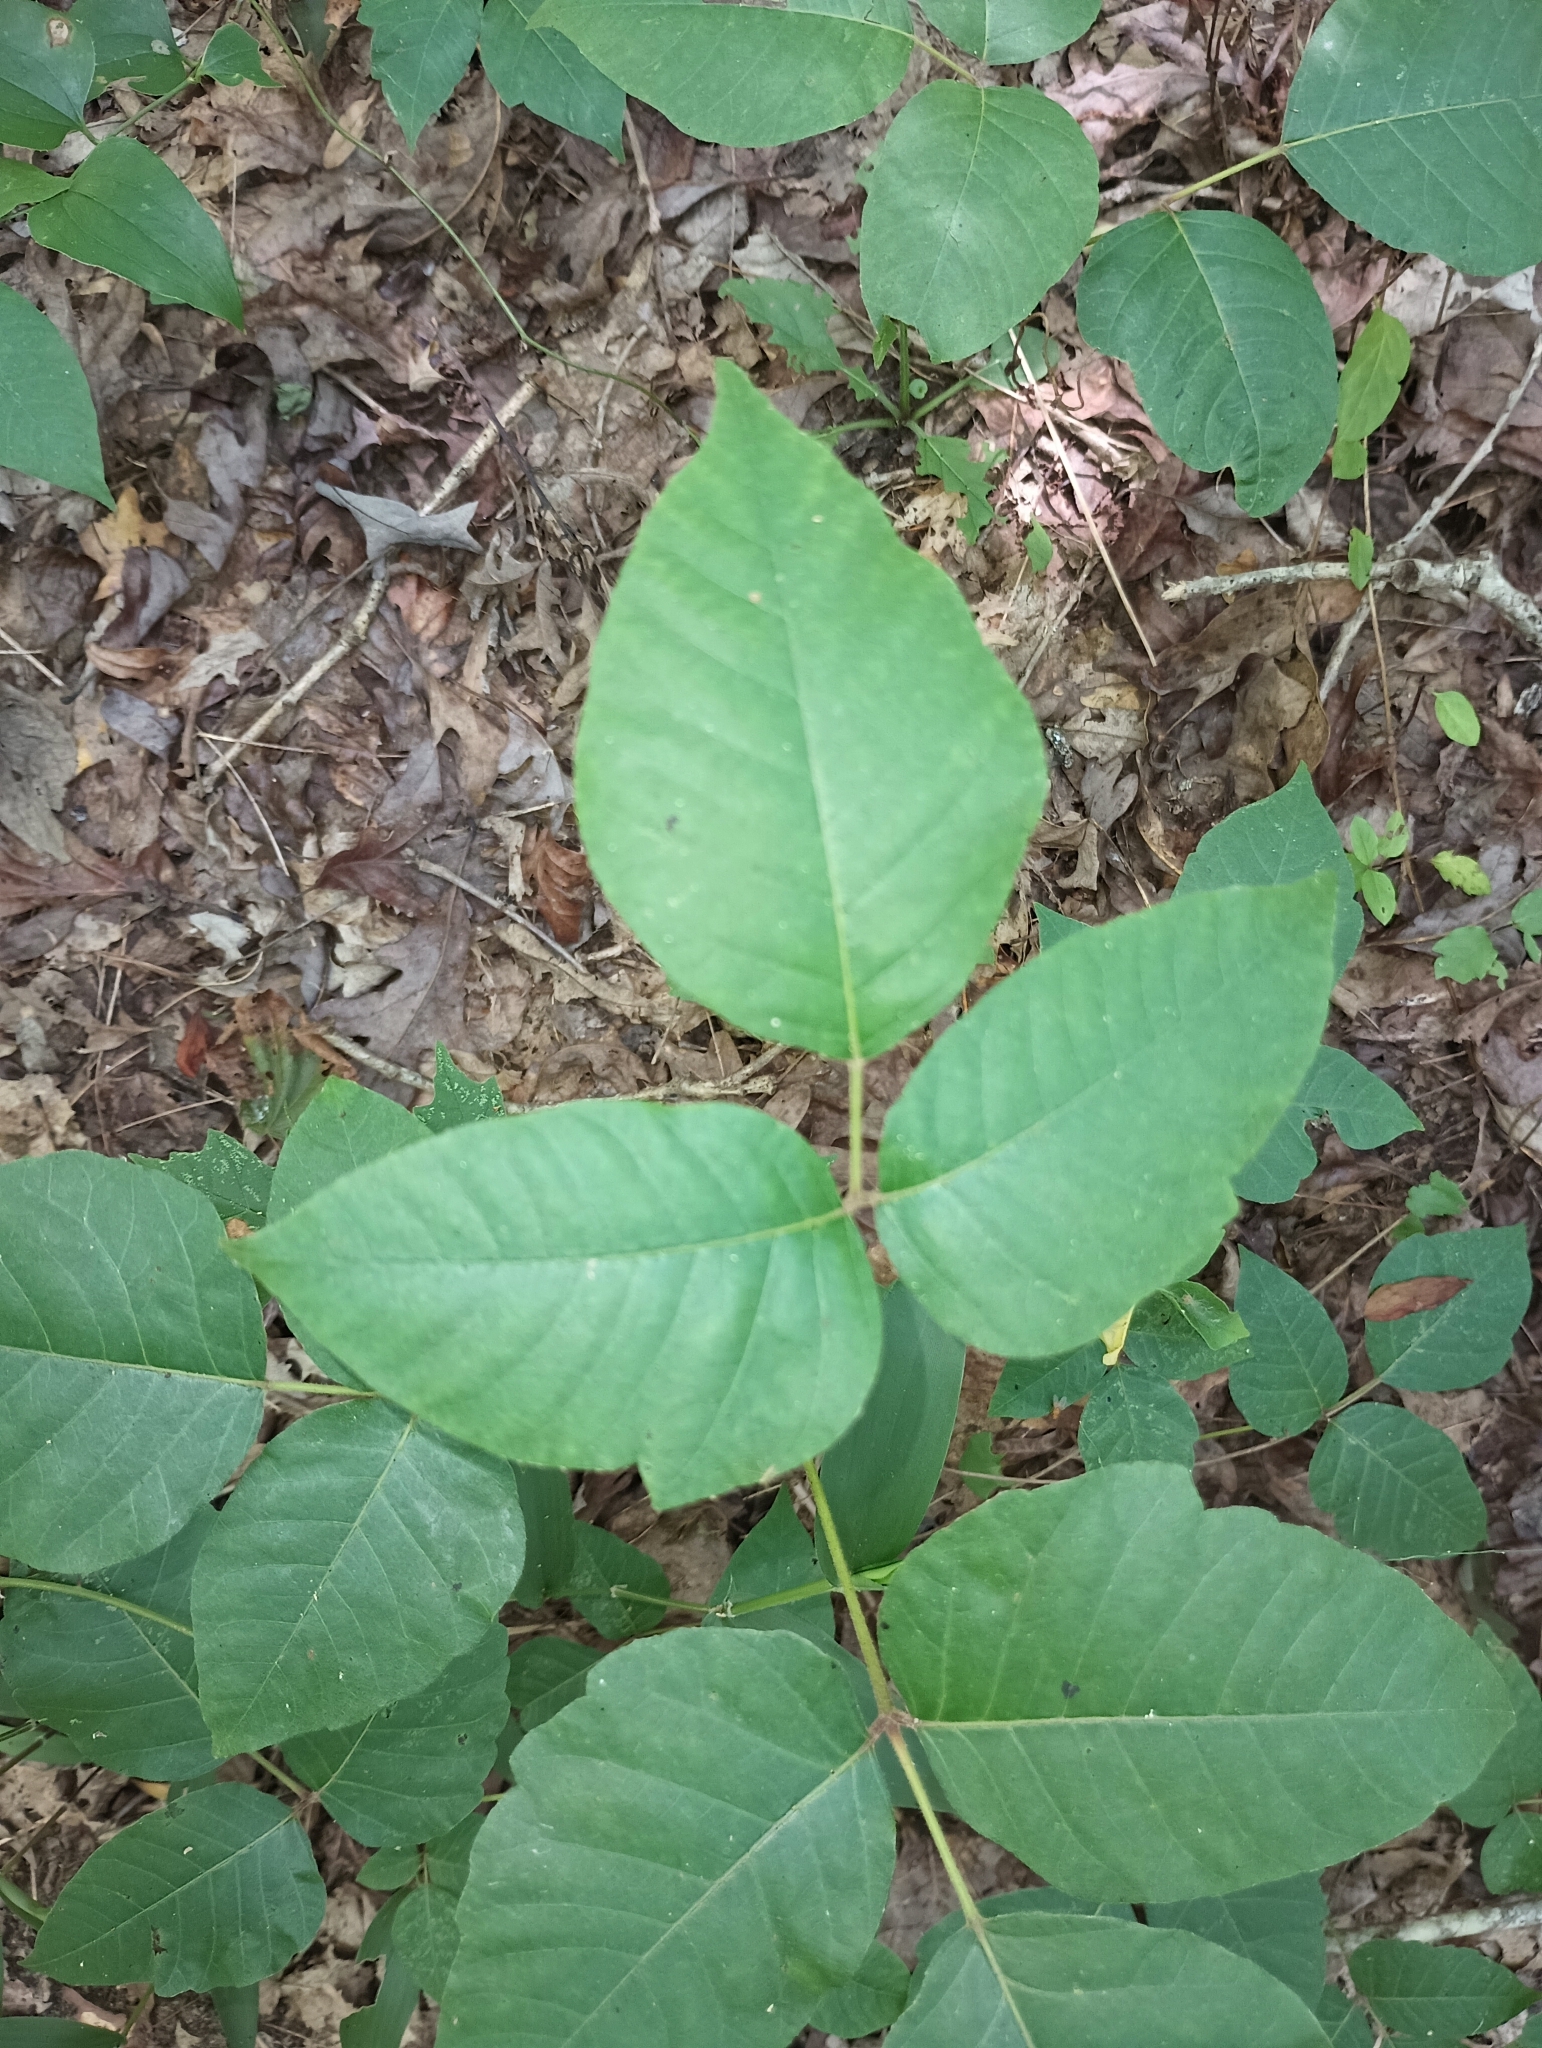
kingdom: Plantae
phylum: Tracheophyta
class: Magnoliopsida
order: Sapindales
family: Anacardiaceae
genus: Toxicodendron
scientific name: Toxicodendron radicans
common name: Poison ivy
